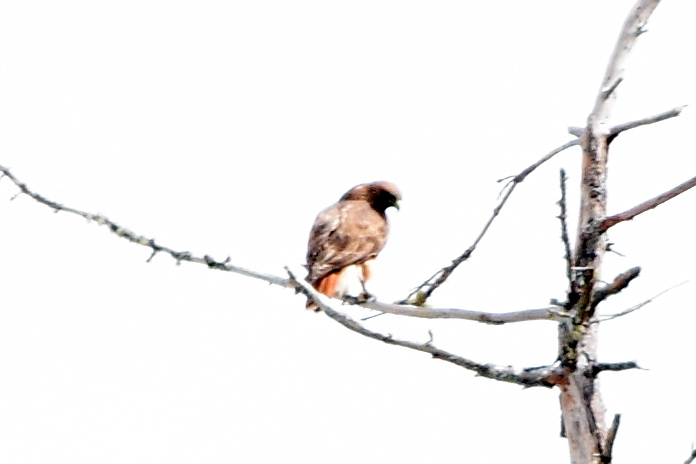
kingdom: Animalia
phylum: Chordata
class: Aves
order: Accipitriformes
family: Accipitridae
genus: Buteo
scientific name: Buteo jamaicensis
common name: Red-tailed hawk
